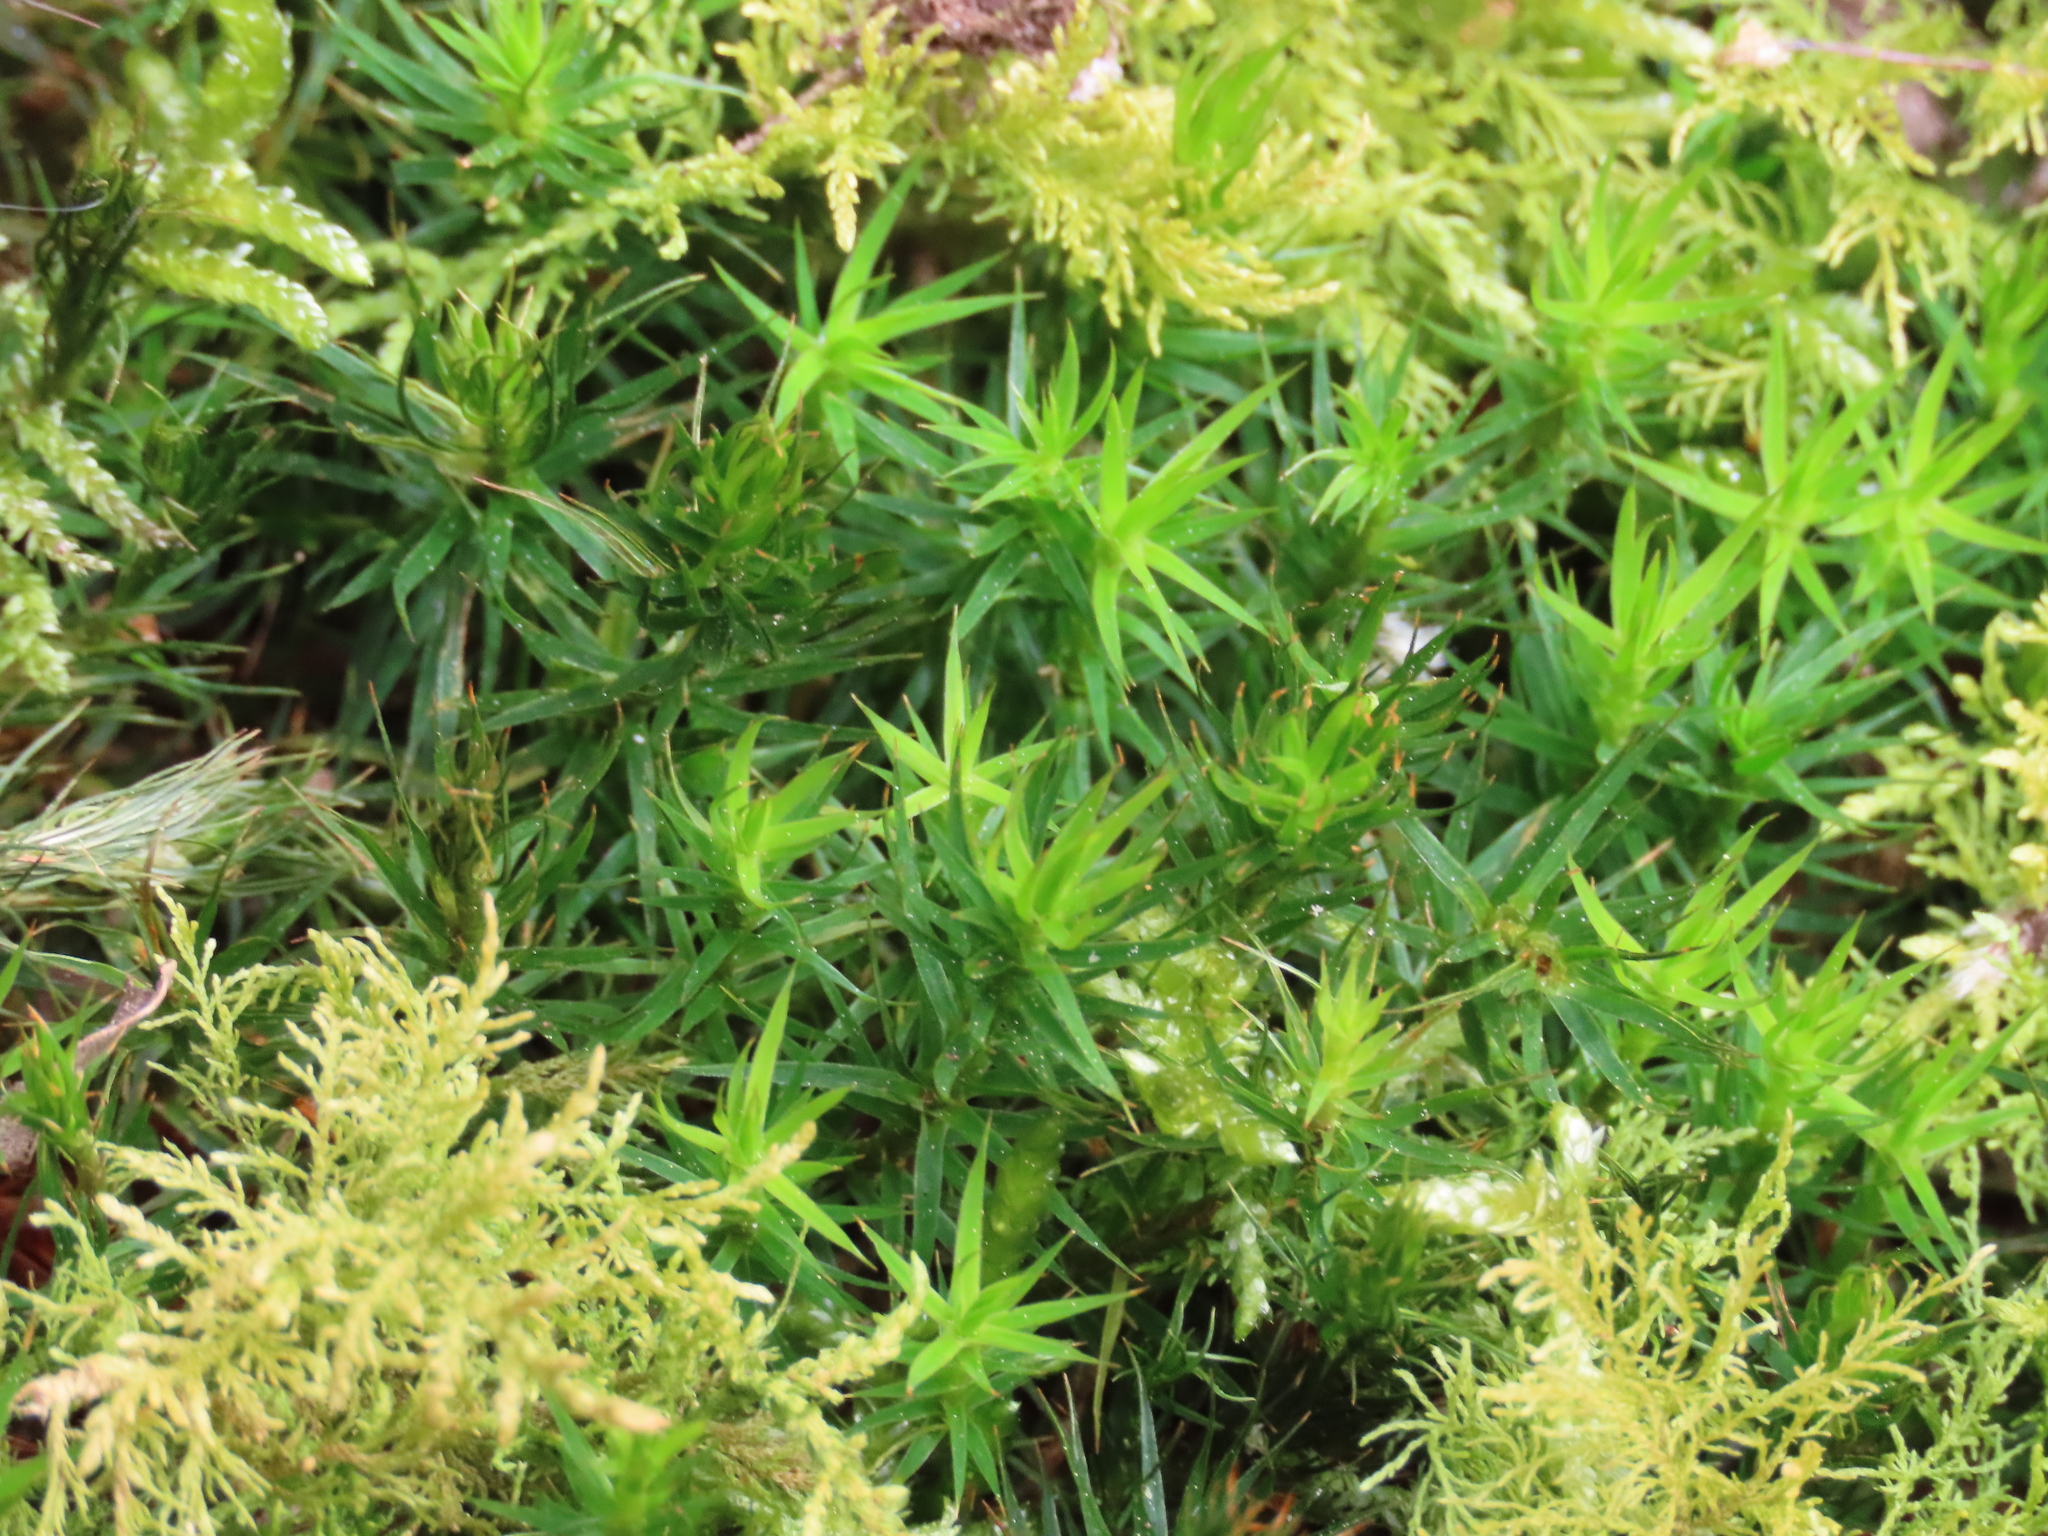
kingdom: Plantae
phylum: Bryophyta
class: Polytrichopsida
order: Polytrichales
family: Polytrichaceae
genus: Polytrichum
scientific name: Polytrichum formosum
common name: Bank haircap moss
